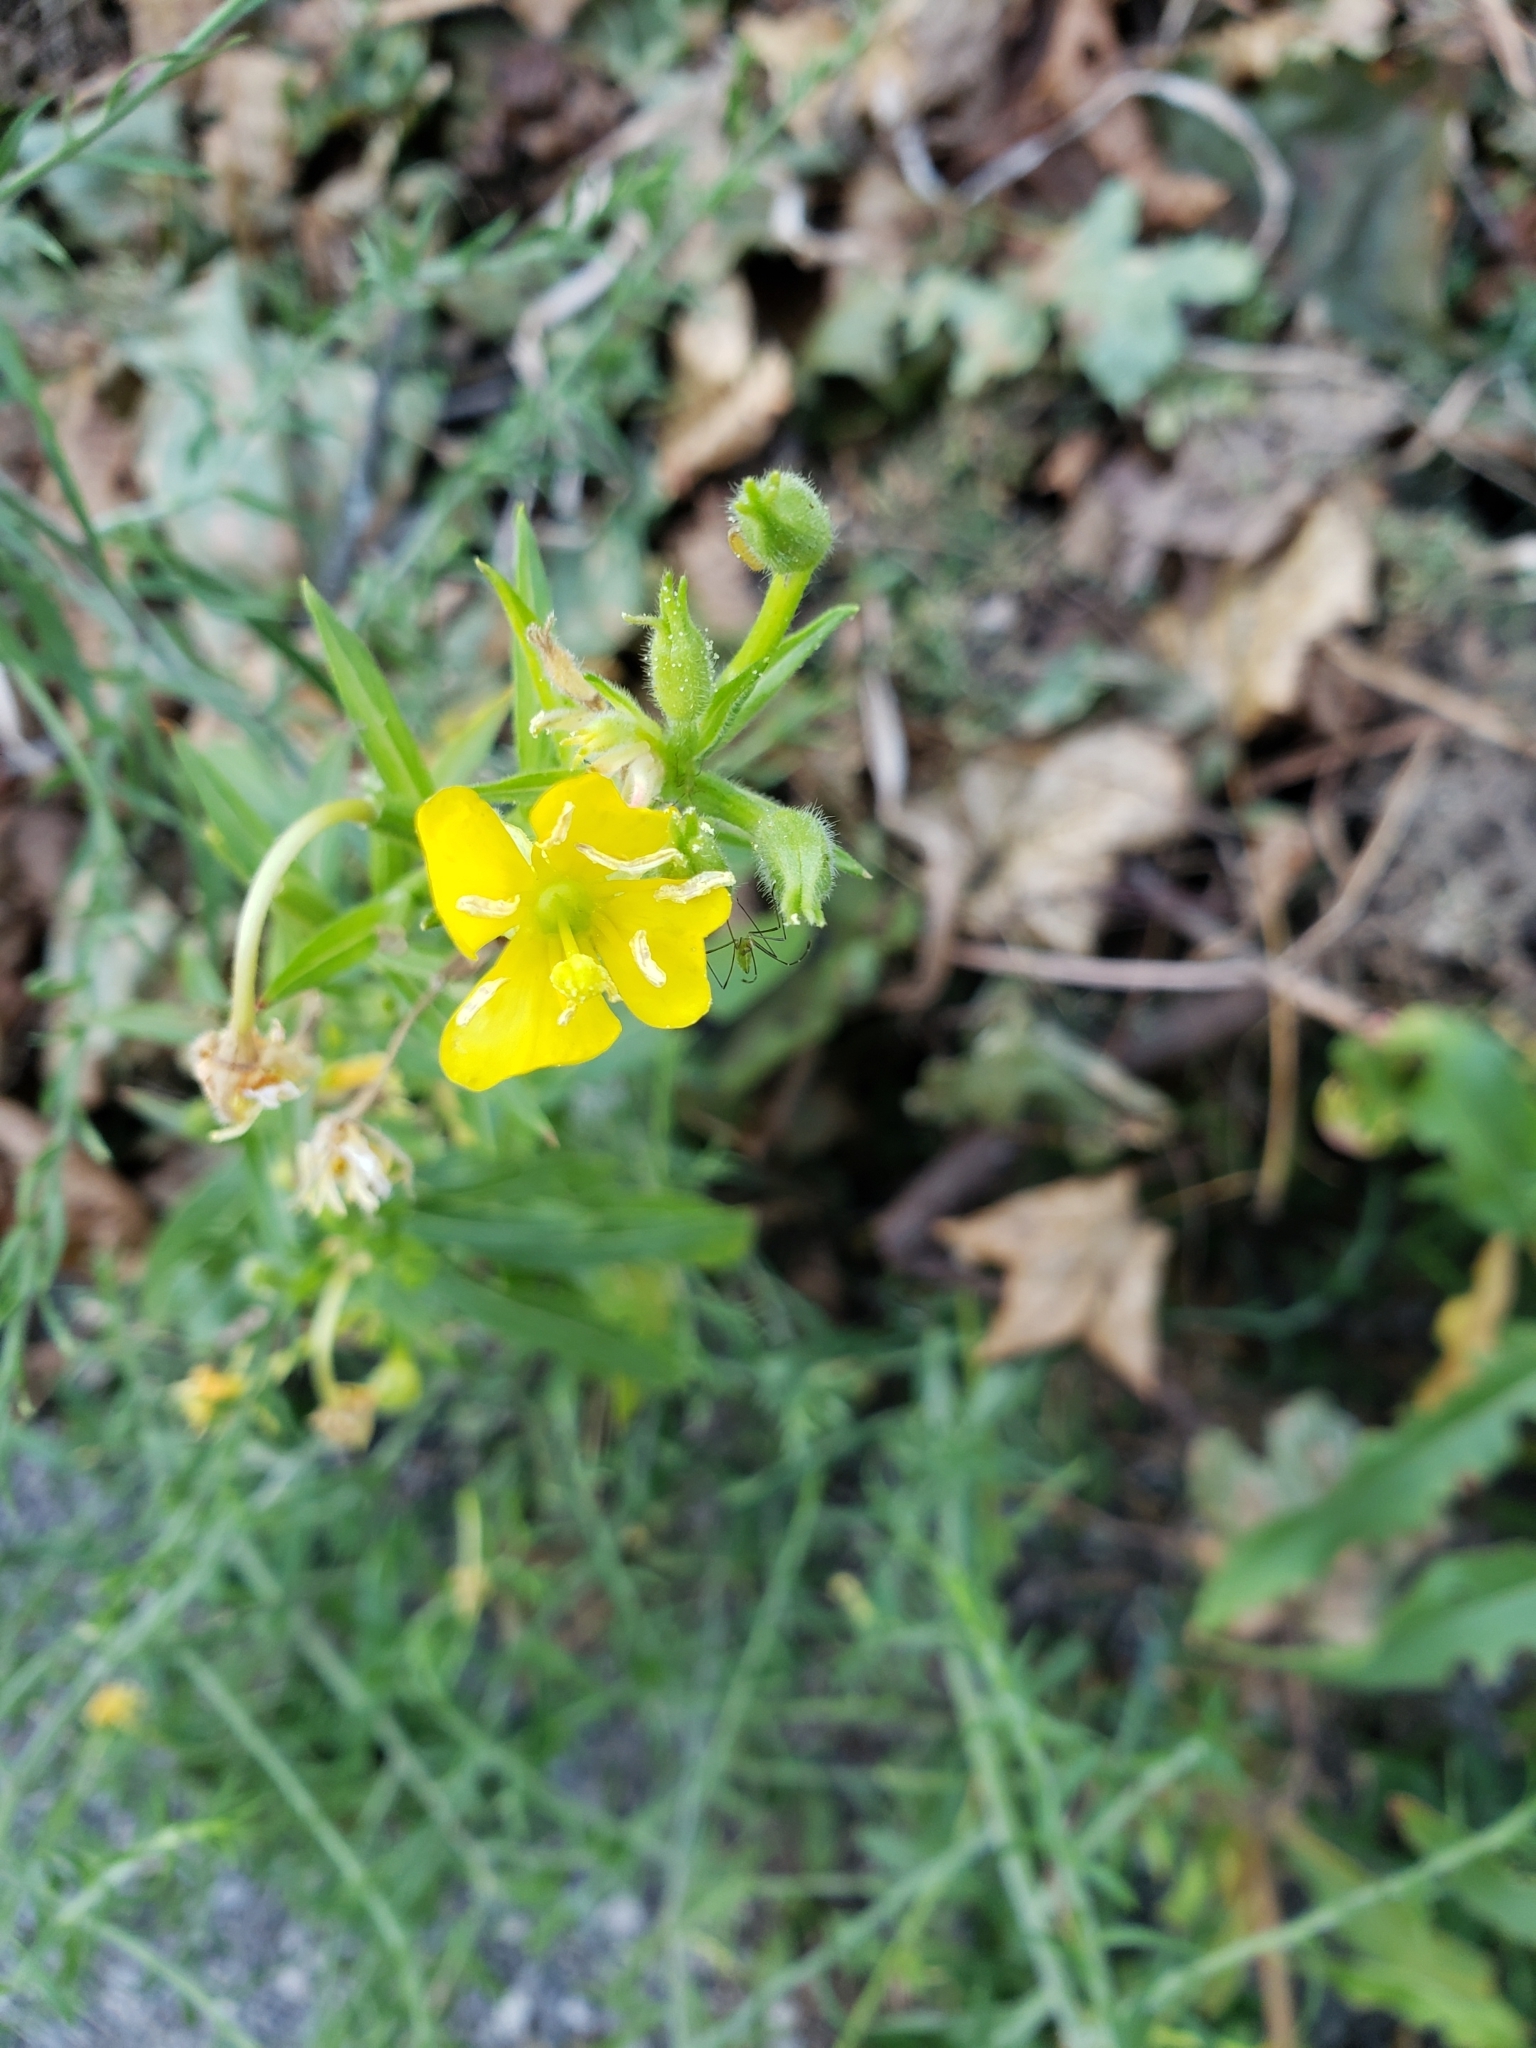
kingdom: Plantae
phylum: Tracheophyta
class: Magnoliopsida
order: Myrtales
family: Onagraceae
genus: Oenothera
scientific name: Oenothera biennis
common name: Common evening-primrose
